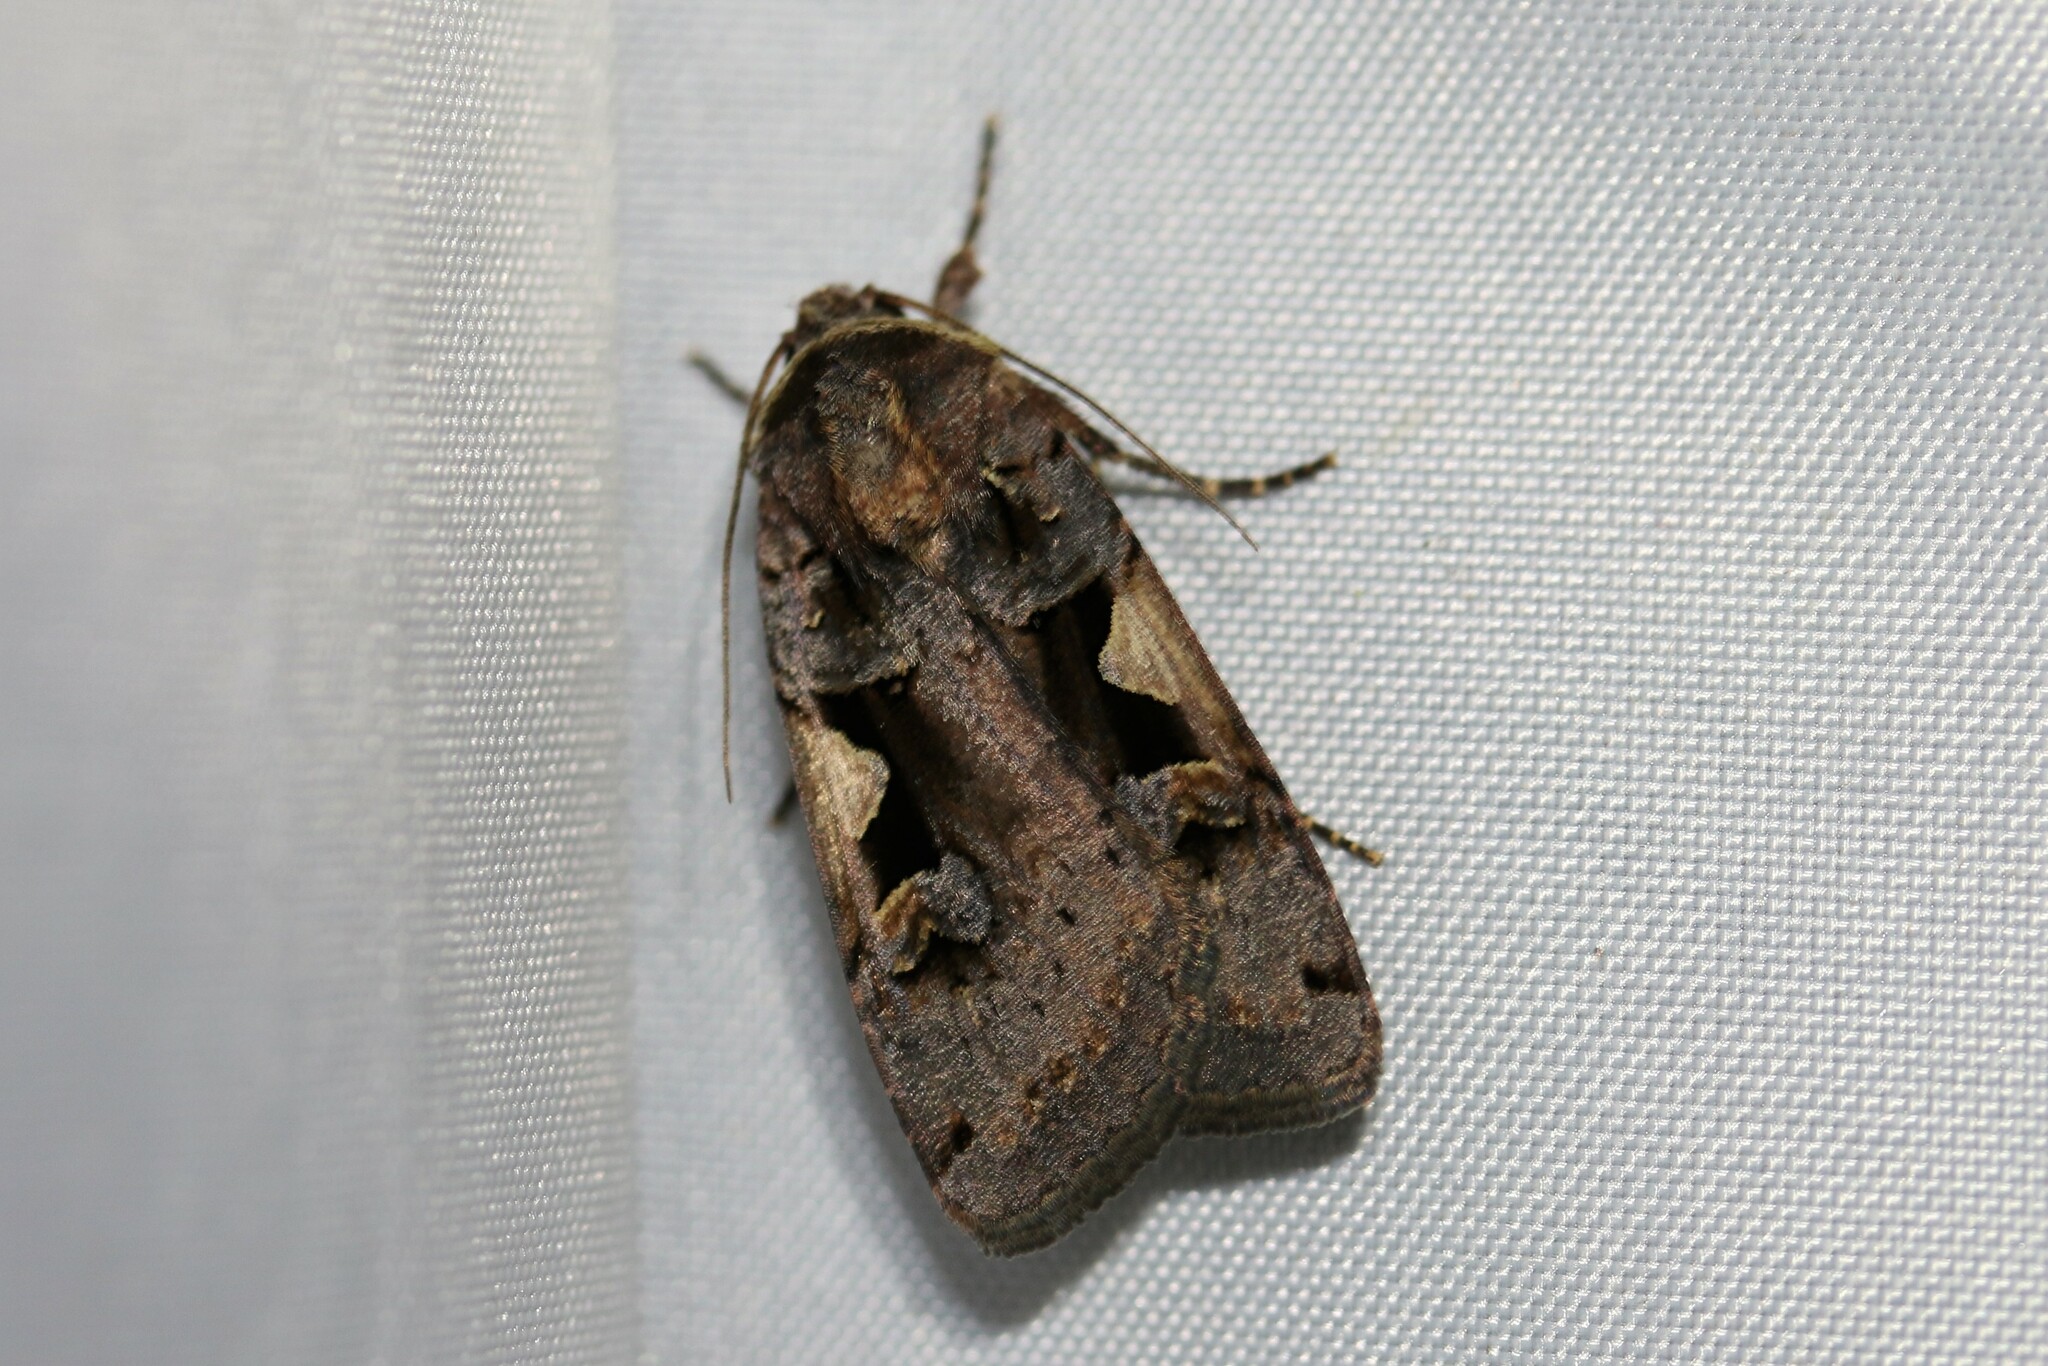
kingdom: Animalia
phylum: Arthropoda
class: Insecta
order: Lepidoptera
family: Noctuidae
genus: Xestia
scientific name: Xestia c-nigrum
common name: Setaceous hebrew character
